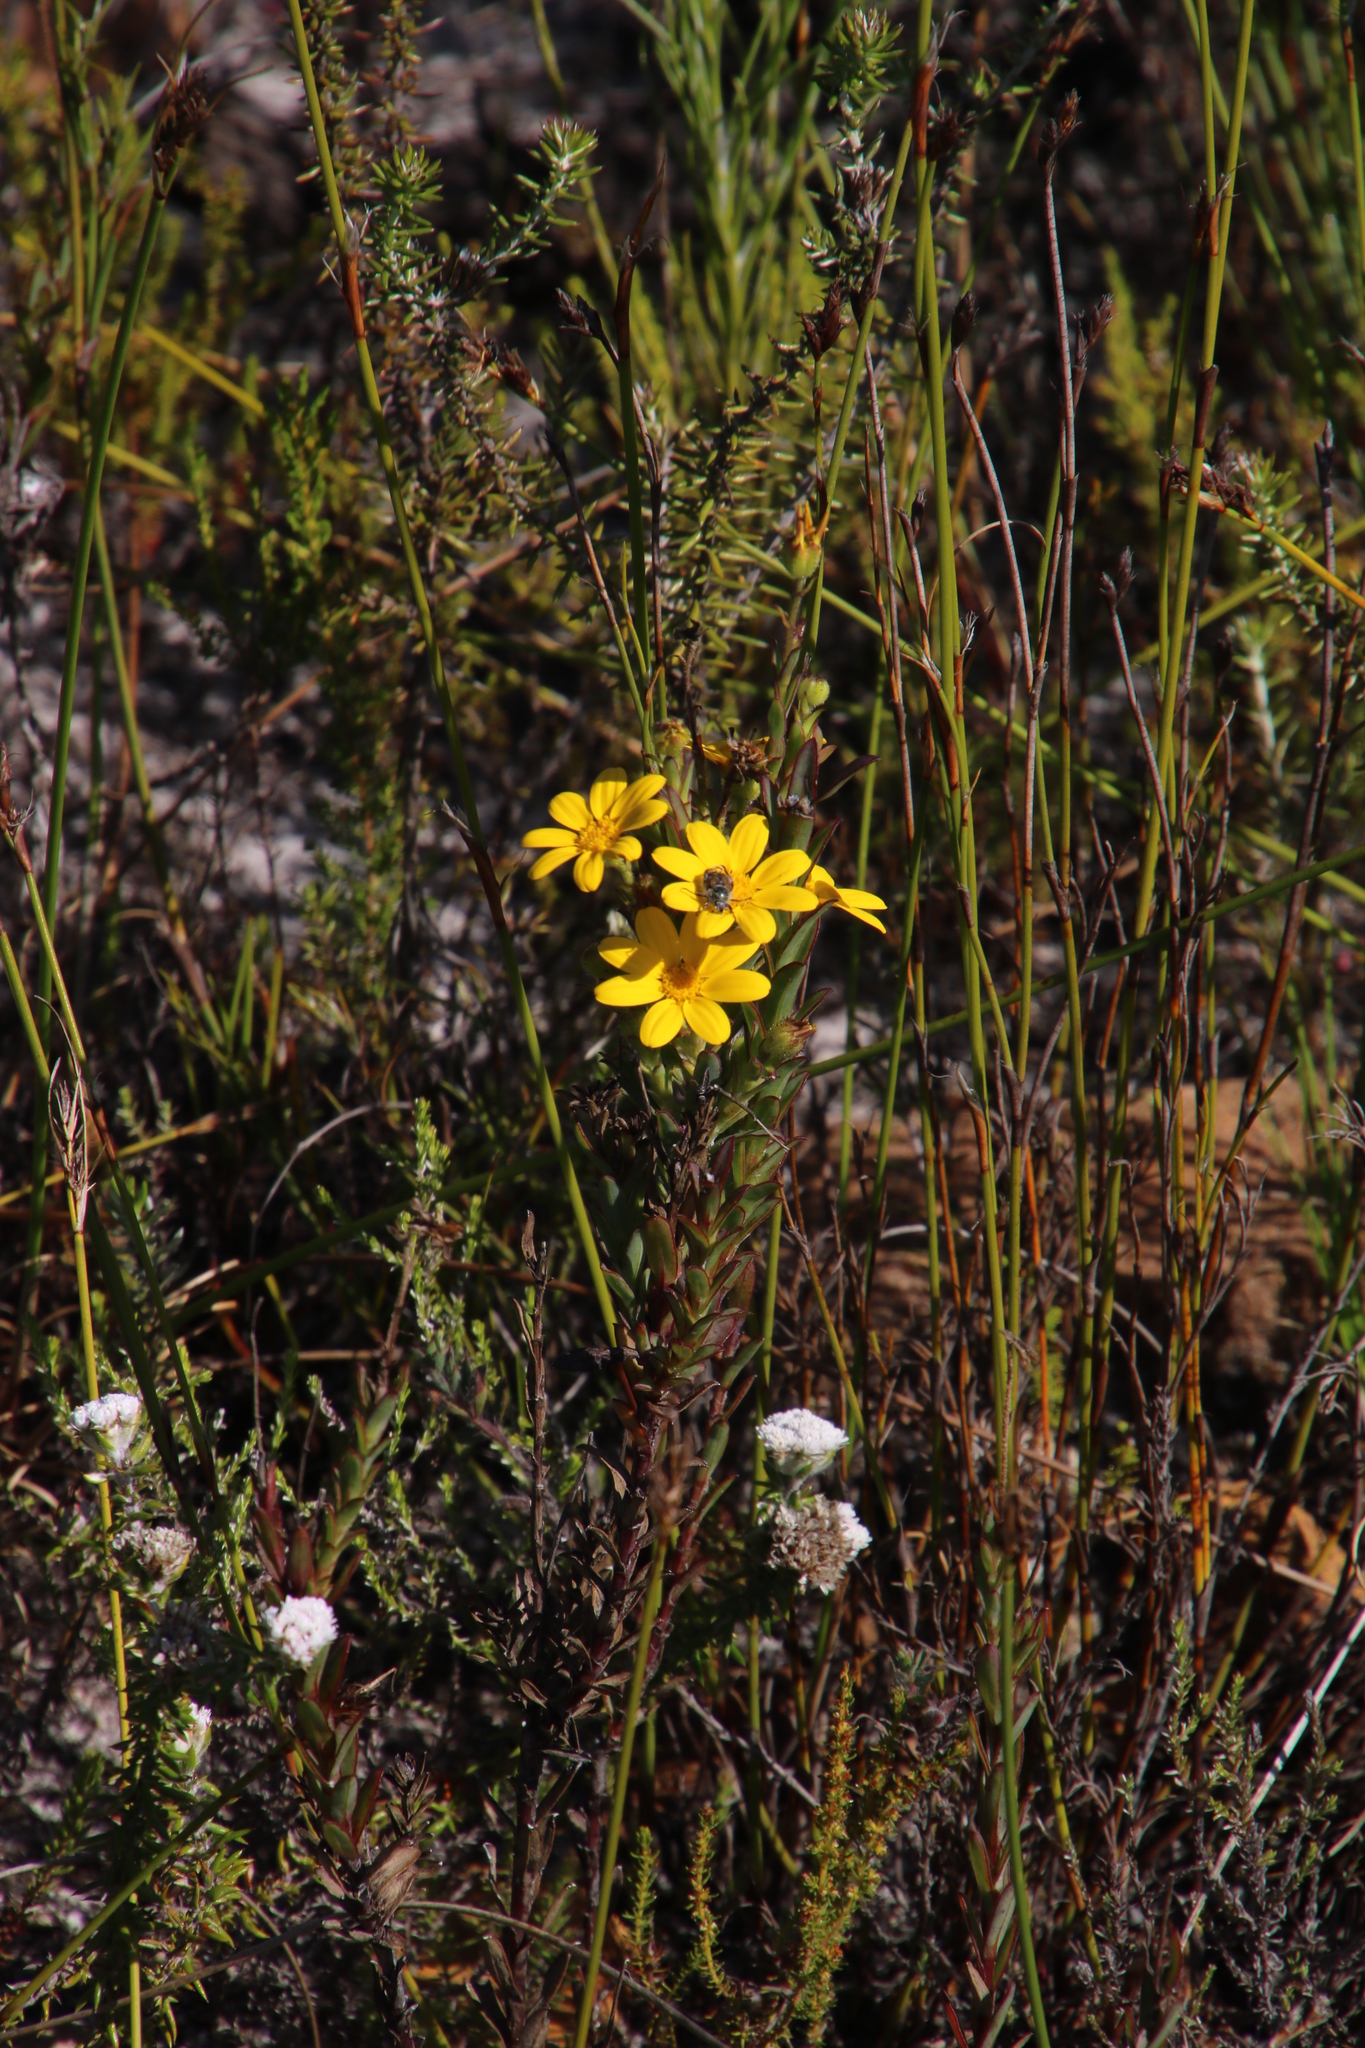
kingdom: Plantae
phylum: Tracheophyta
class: Magnoliopsida
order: Asterales
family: Asteraceae
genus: Osteospermum
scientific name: Osteospermum polygaloides
